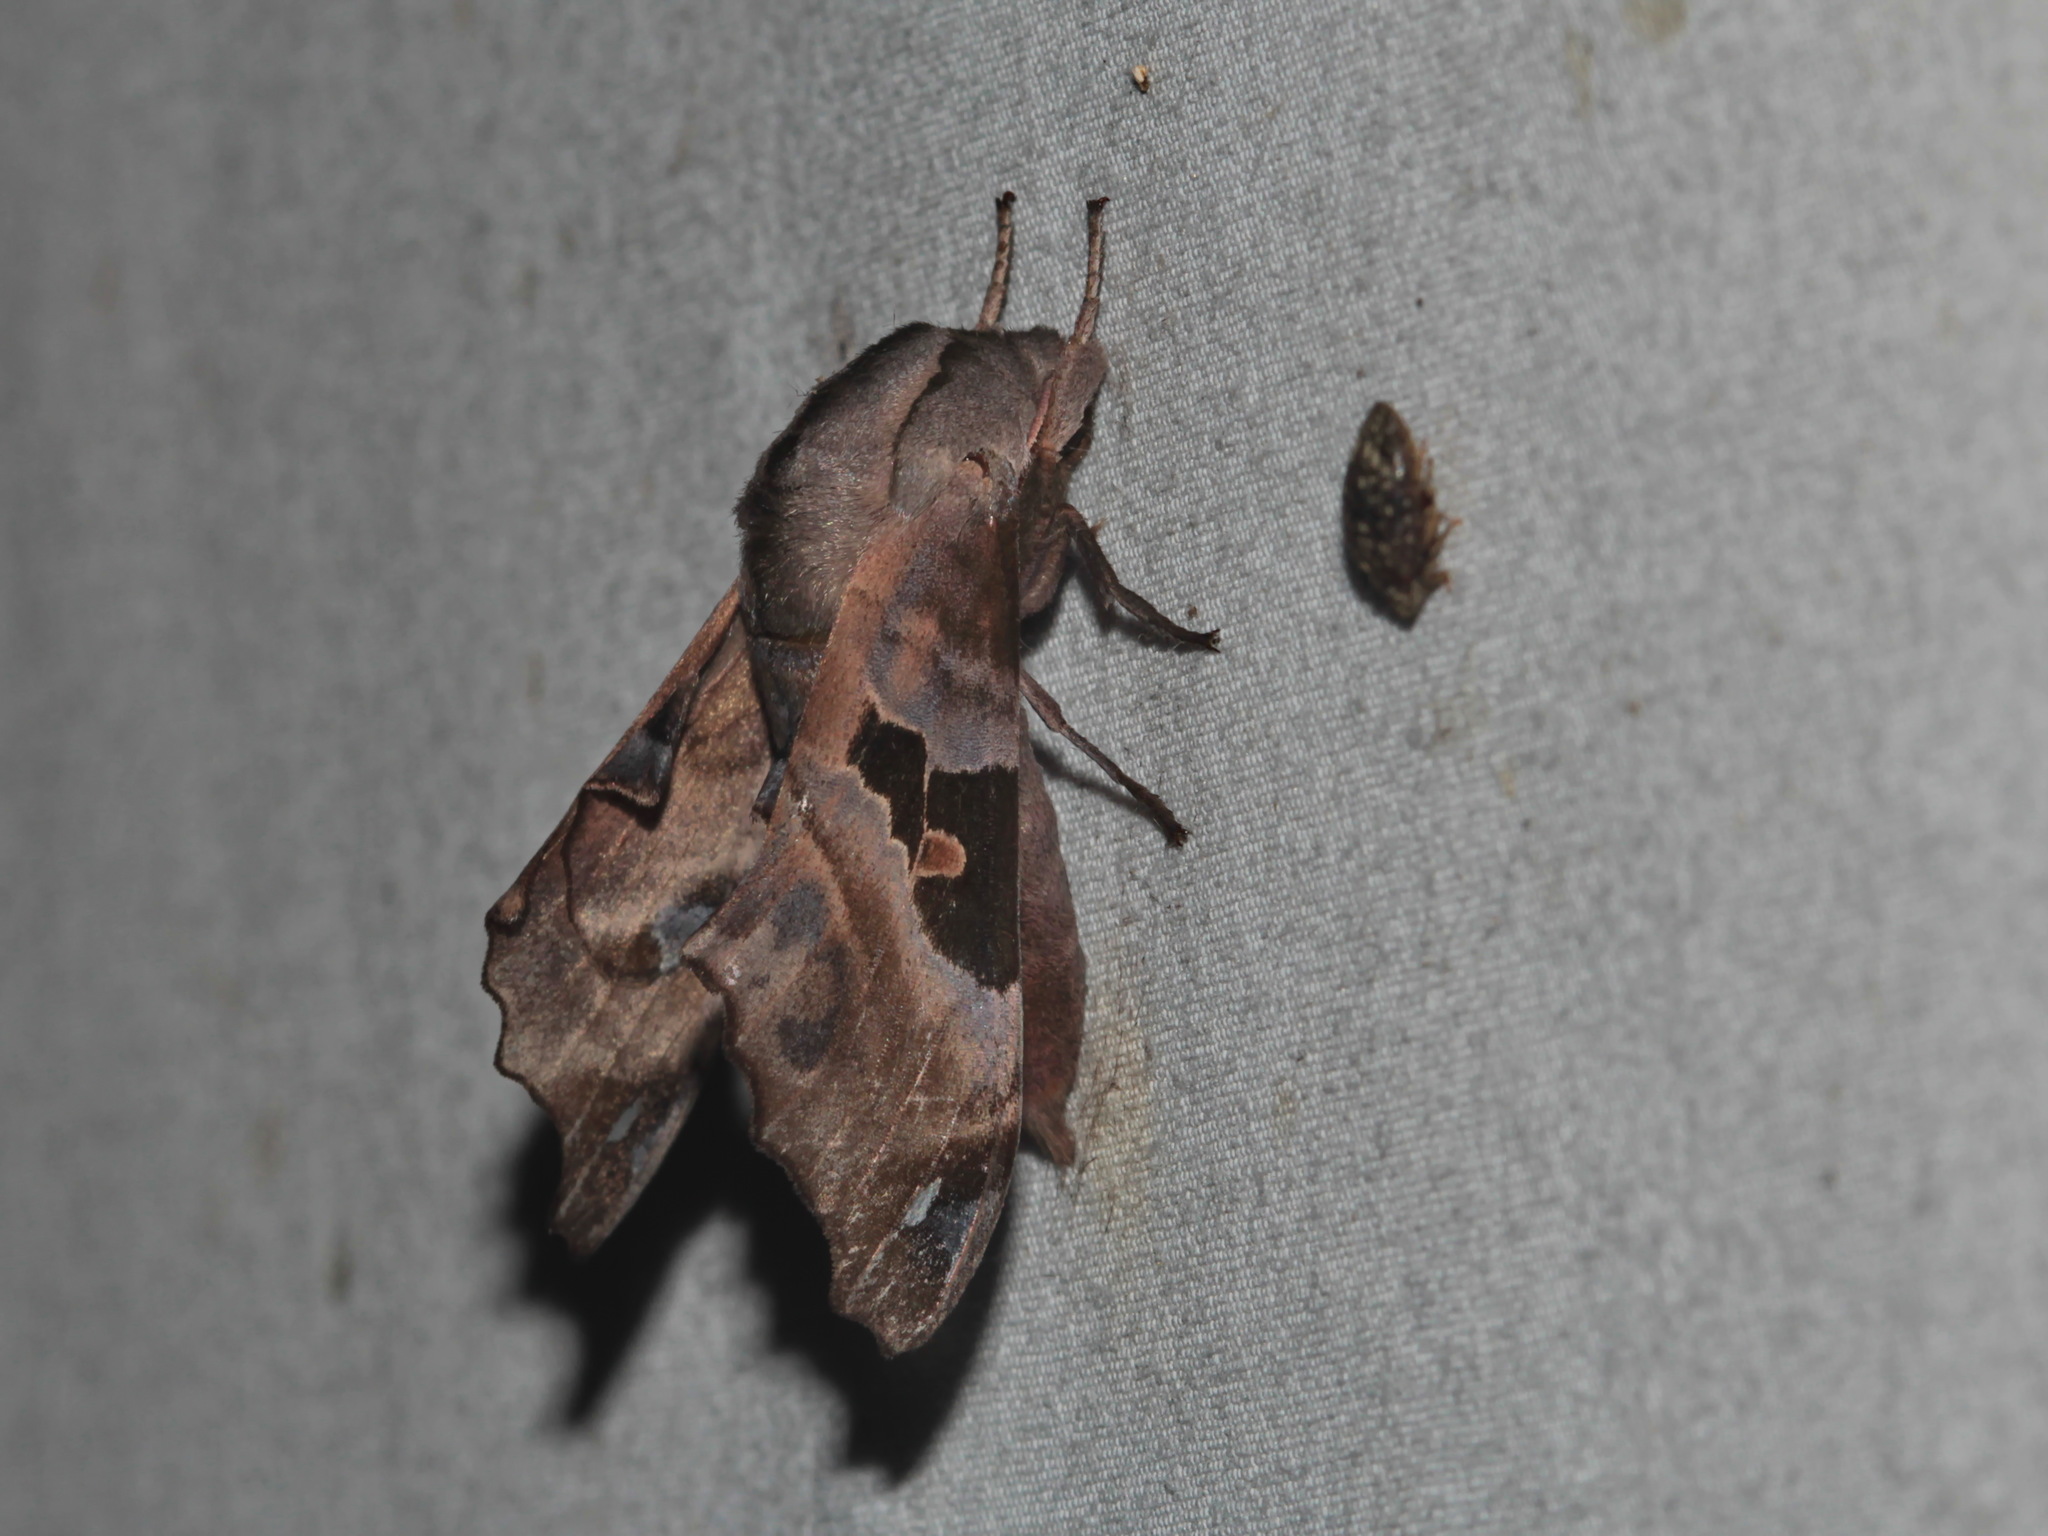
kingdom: Animalia
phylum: Arthropoda
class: Insecta
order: Lepidoptera
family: Sphingidae
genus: Morwennius
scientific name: Morwennius decoratus
